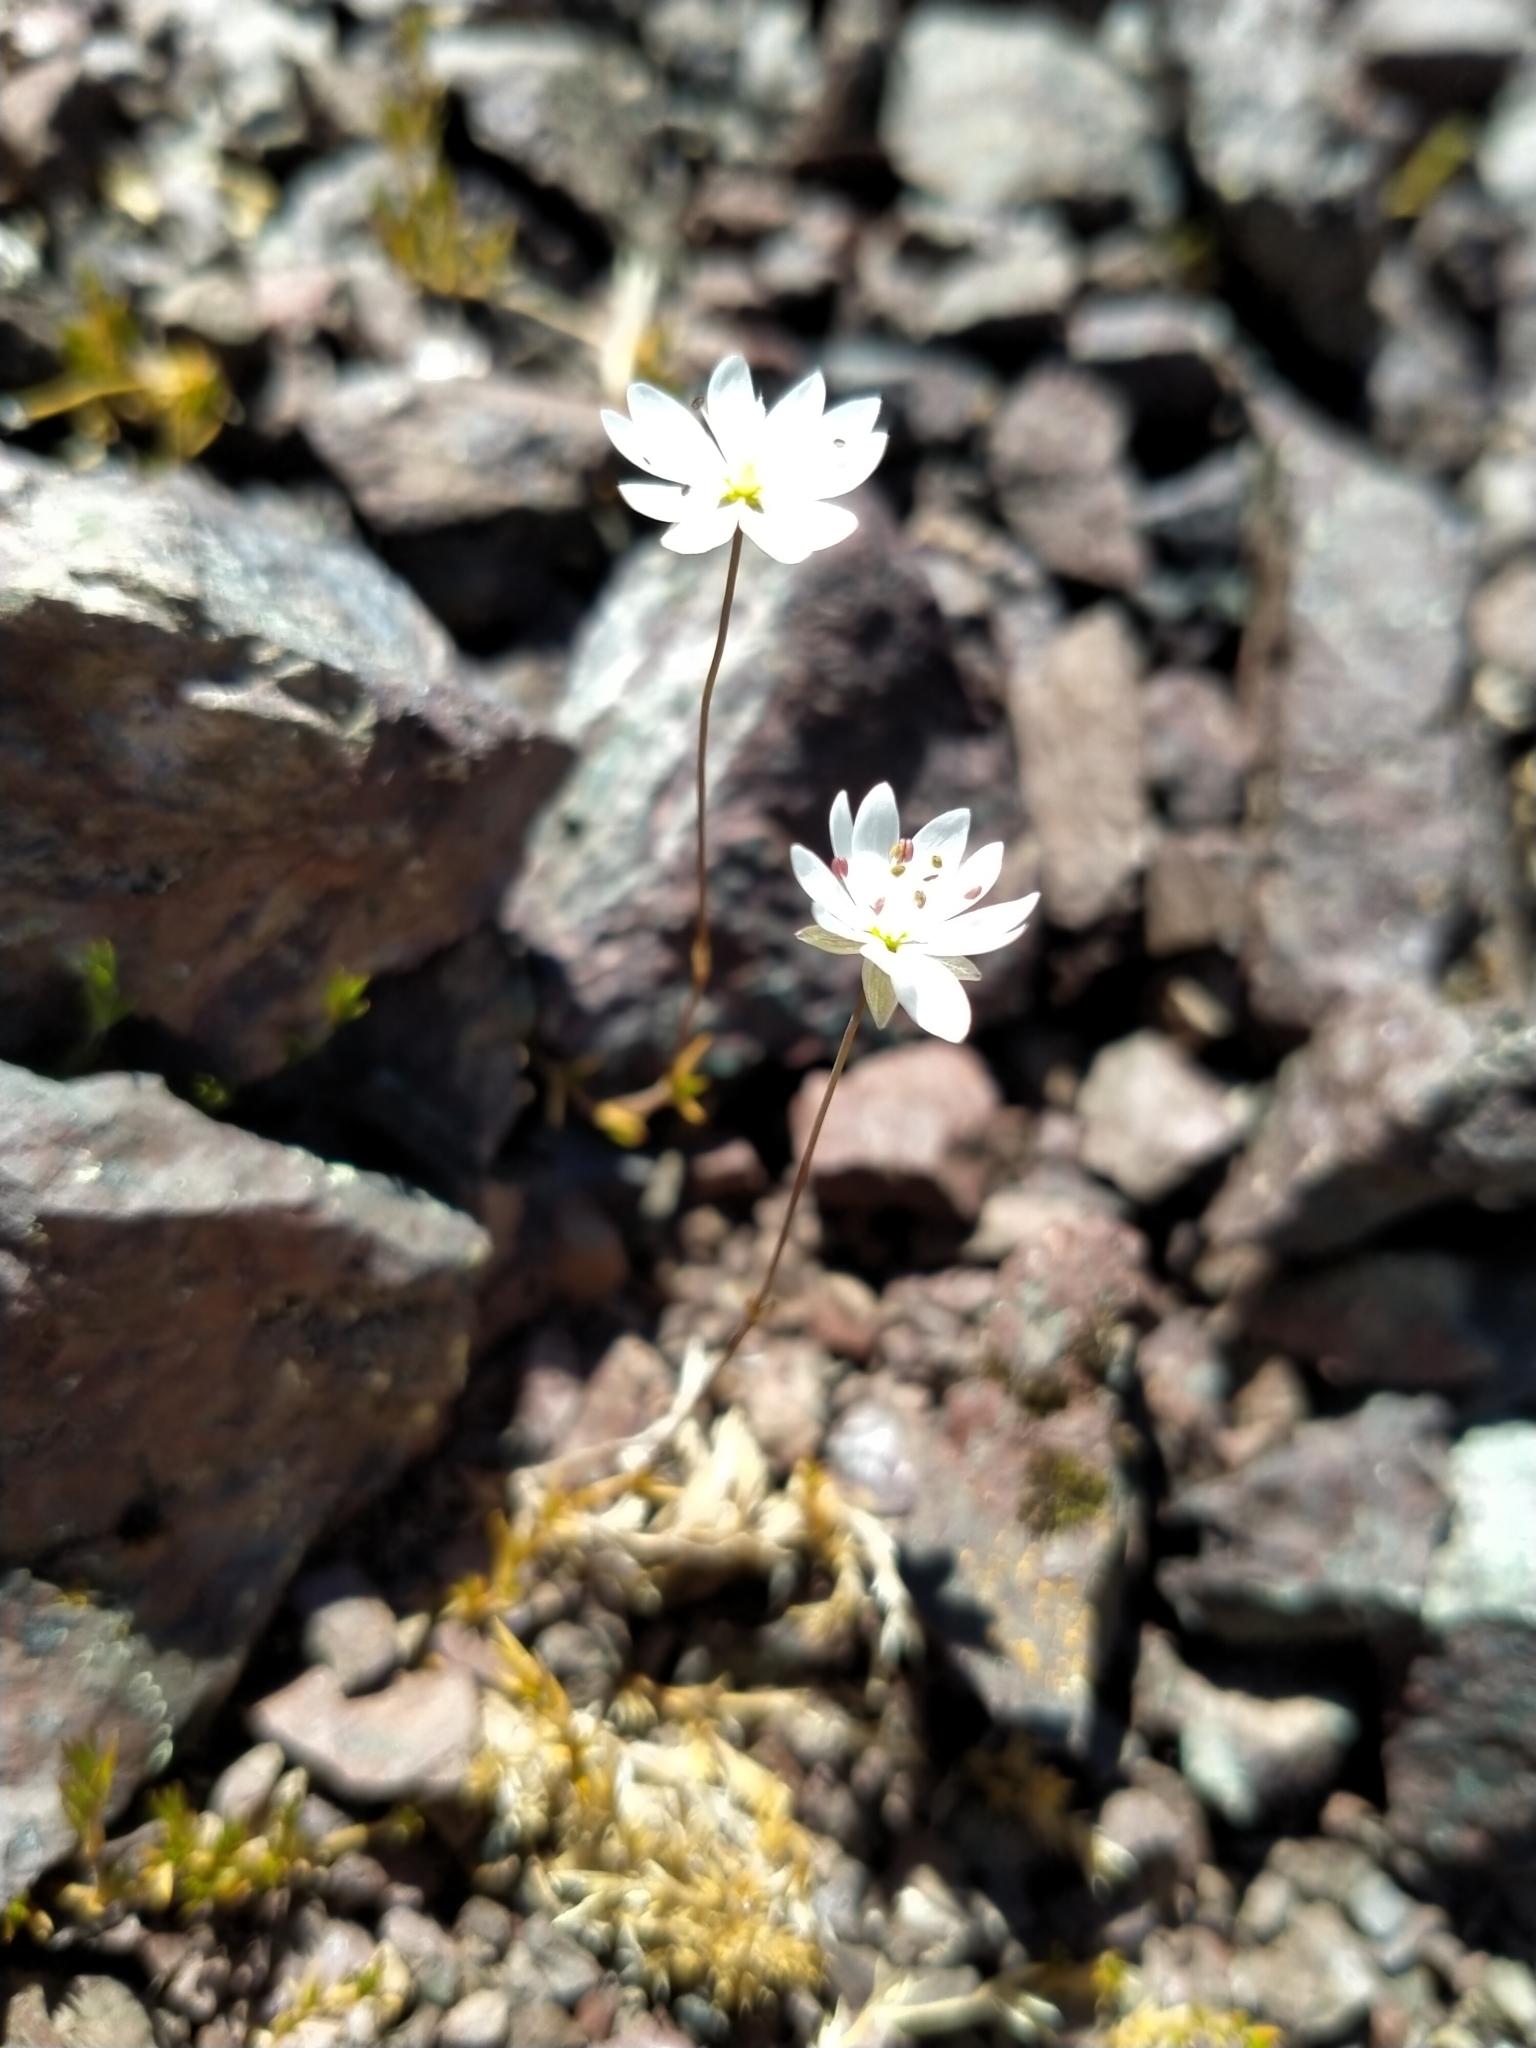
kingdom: Plantae
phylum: Tracheophyta
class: Magnoliopsida
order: Caryophyllales
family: Caryophyllaceae
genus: Stellaria
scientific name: Stellaria gracilenta
